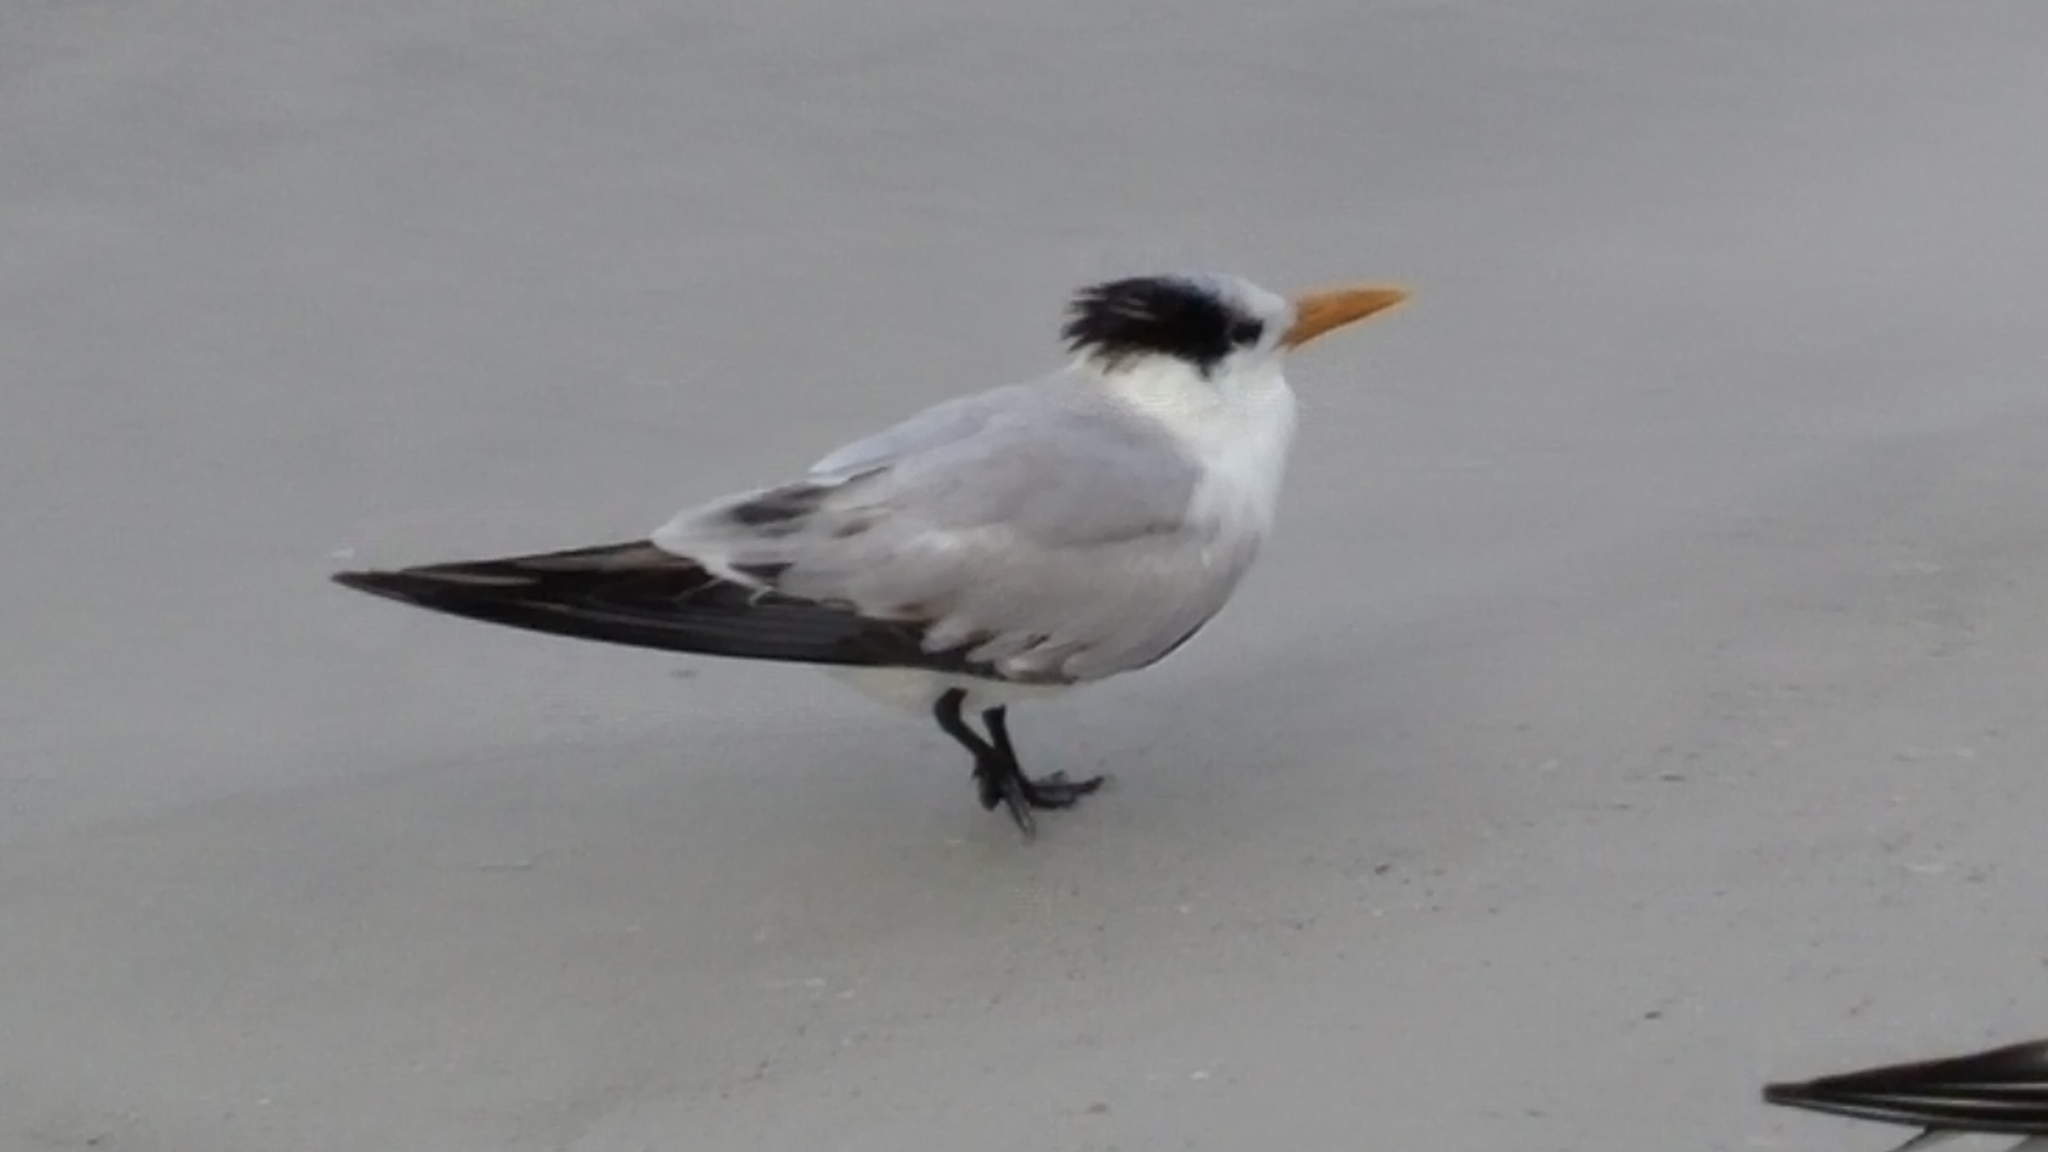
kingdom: Animalia
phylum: Chordata
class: Aves
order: Charadriiformes
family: Laridae
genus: Thalasseus
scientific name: Thalasseus maximus
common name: Royal tern
